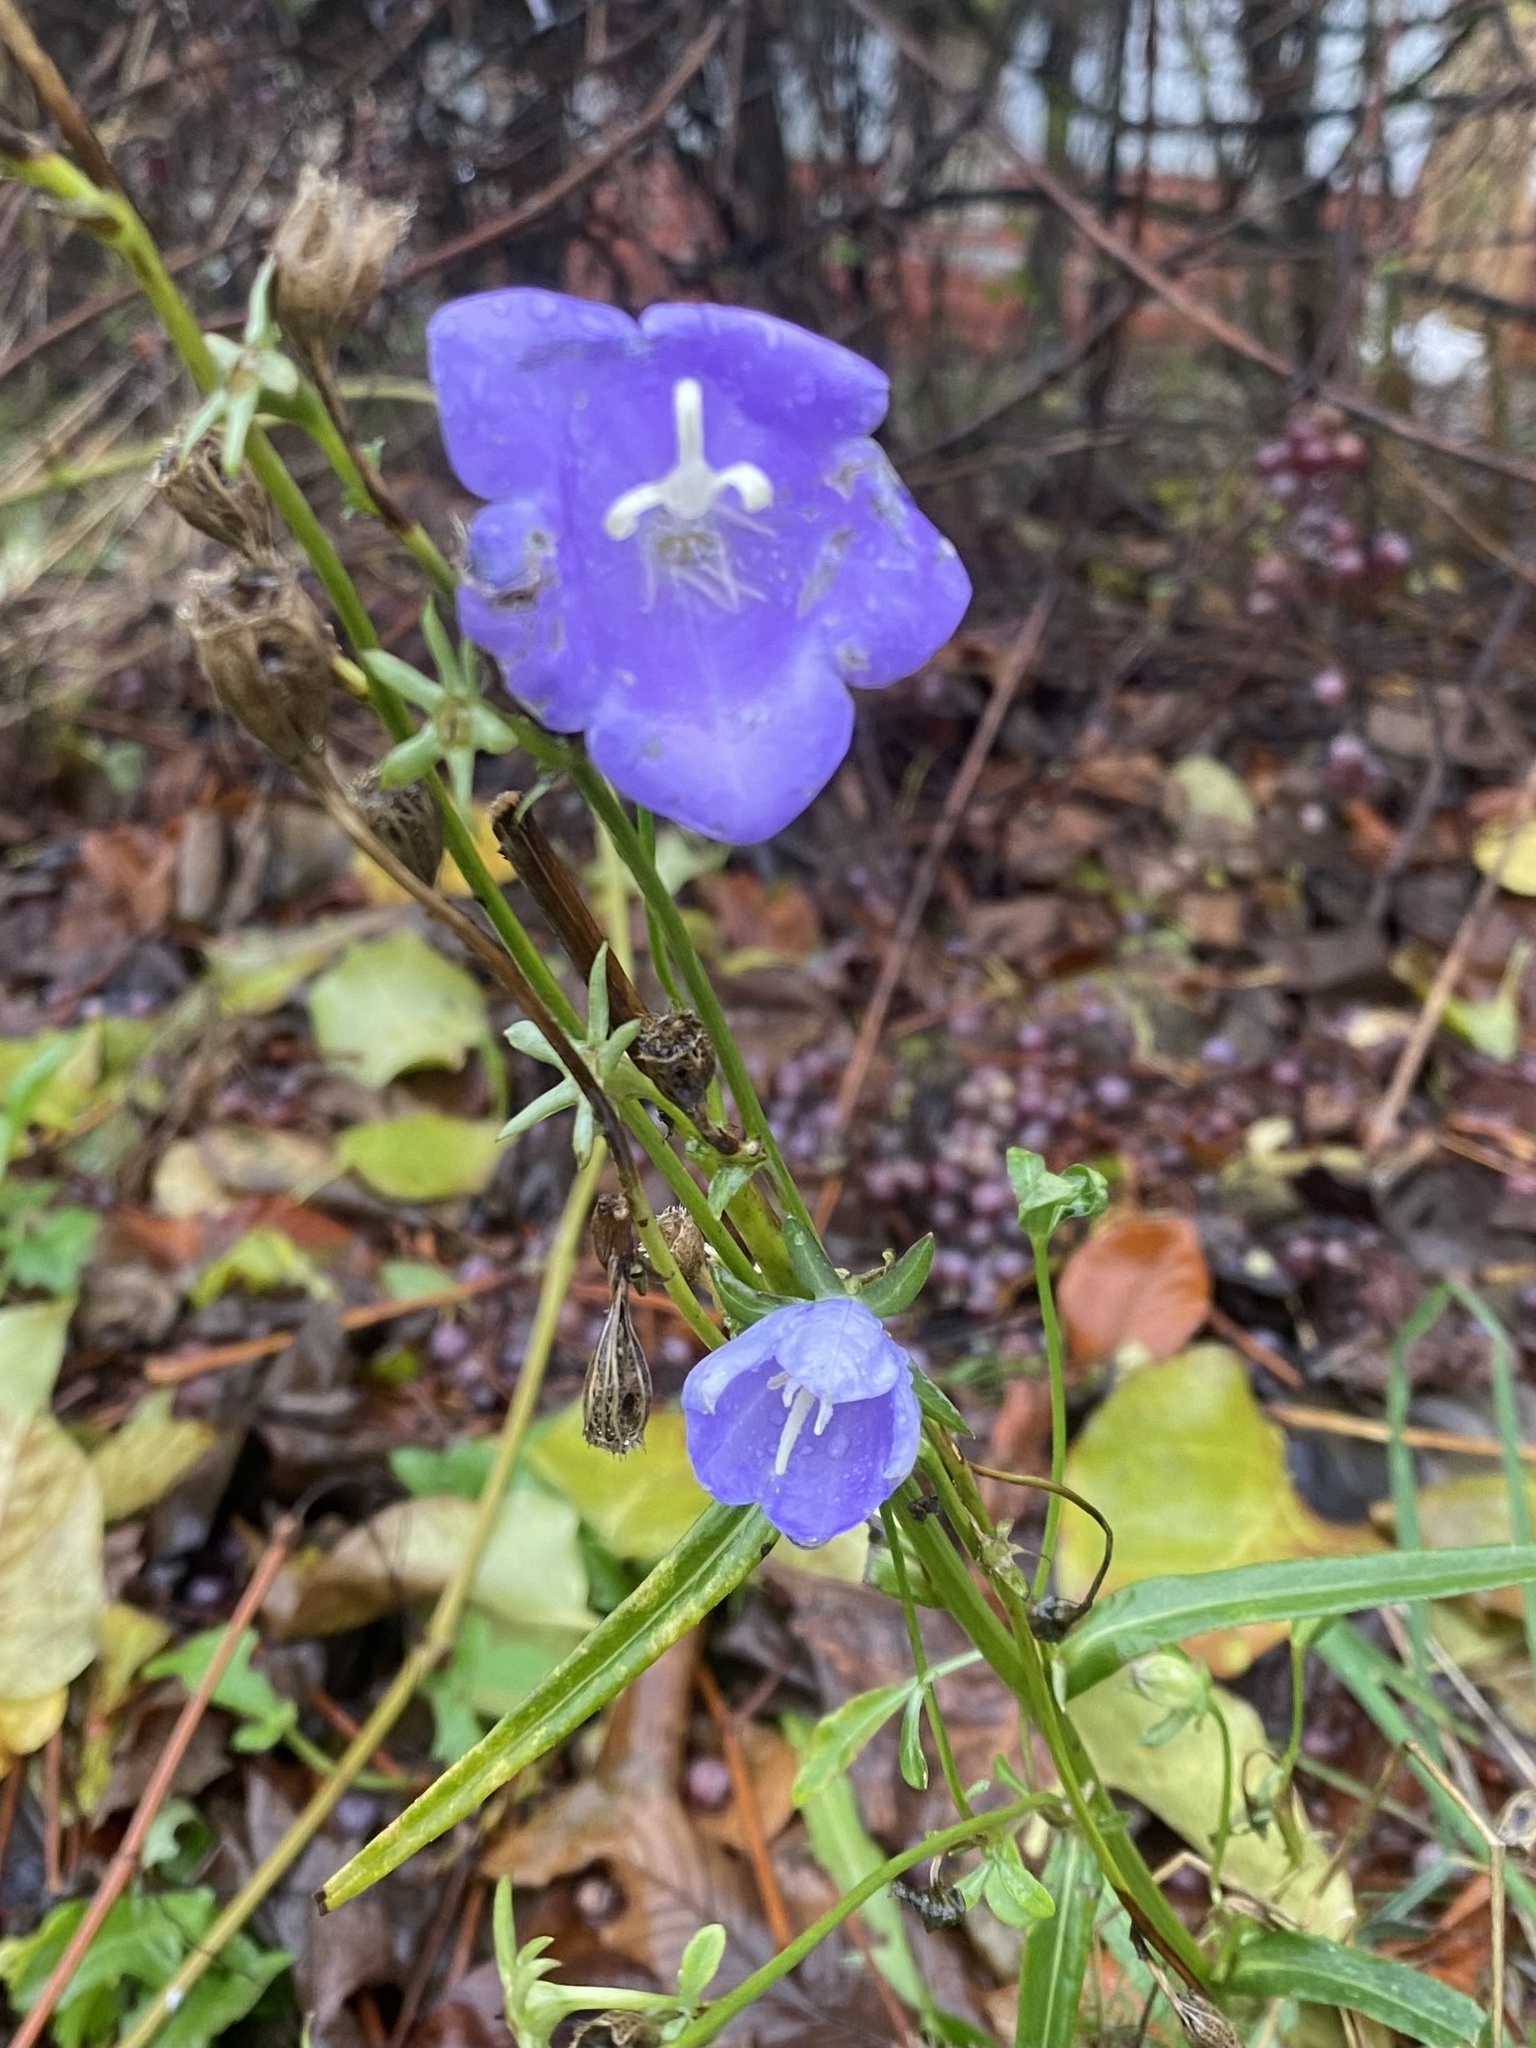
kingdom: Plantae
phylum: Tracheophyta
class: Magnoliopsida
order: Asterales
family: Campanulaceae
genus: Campanula
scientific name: Campanula alaskana
